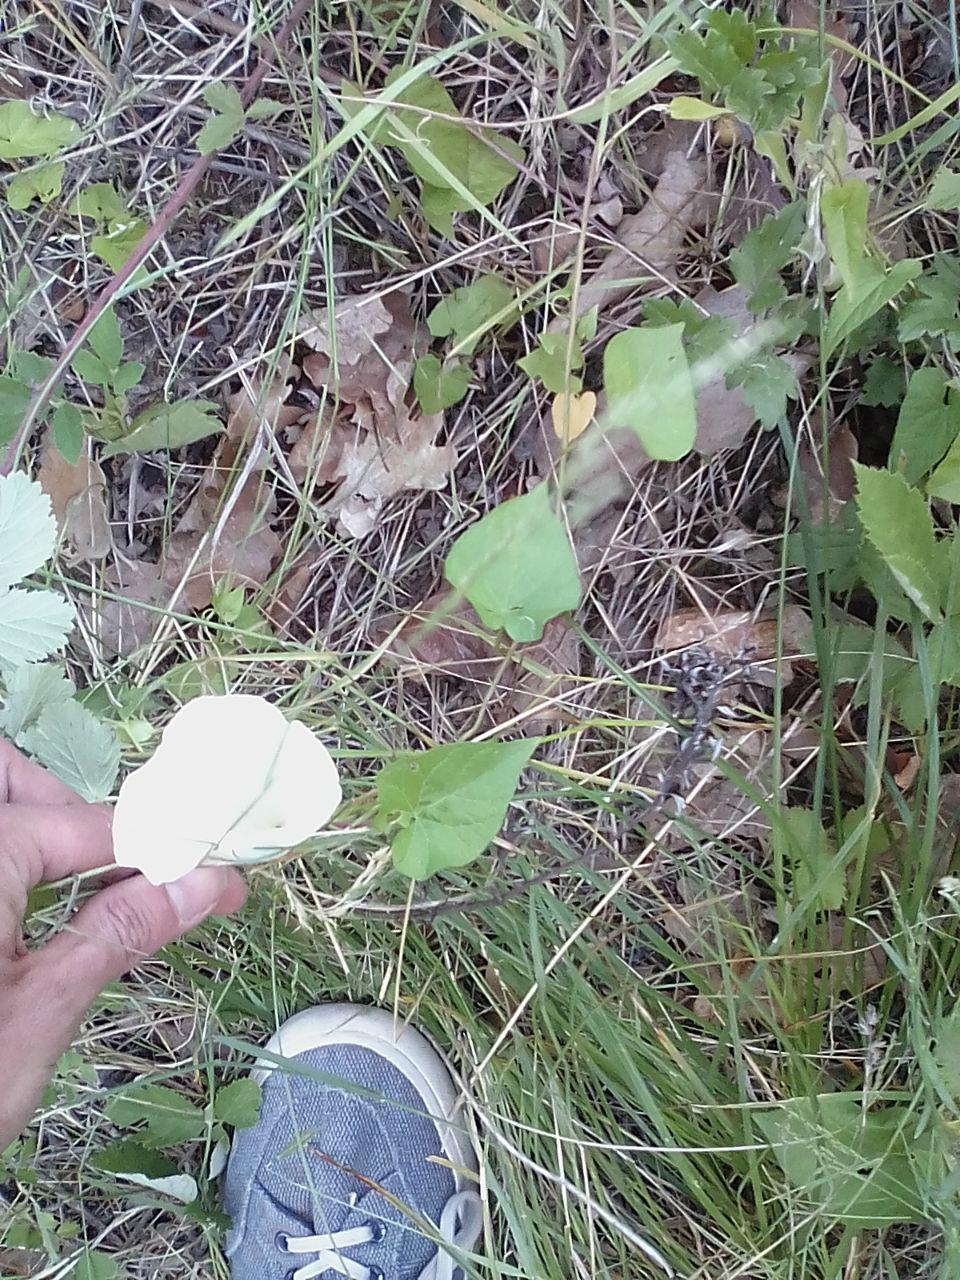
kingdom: Plantae
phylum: Tracheophyta
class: Magnoliopsida
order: Solanales
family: Convolvulaceae
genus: Calystegia
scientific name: Calystegia
